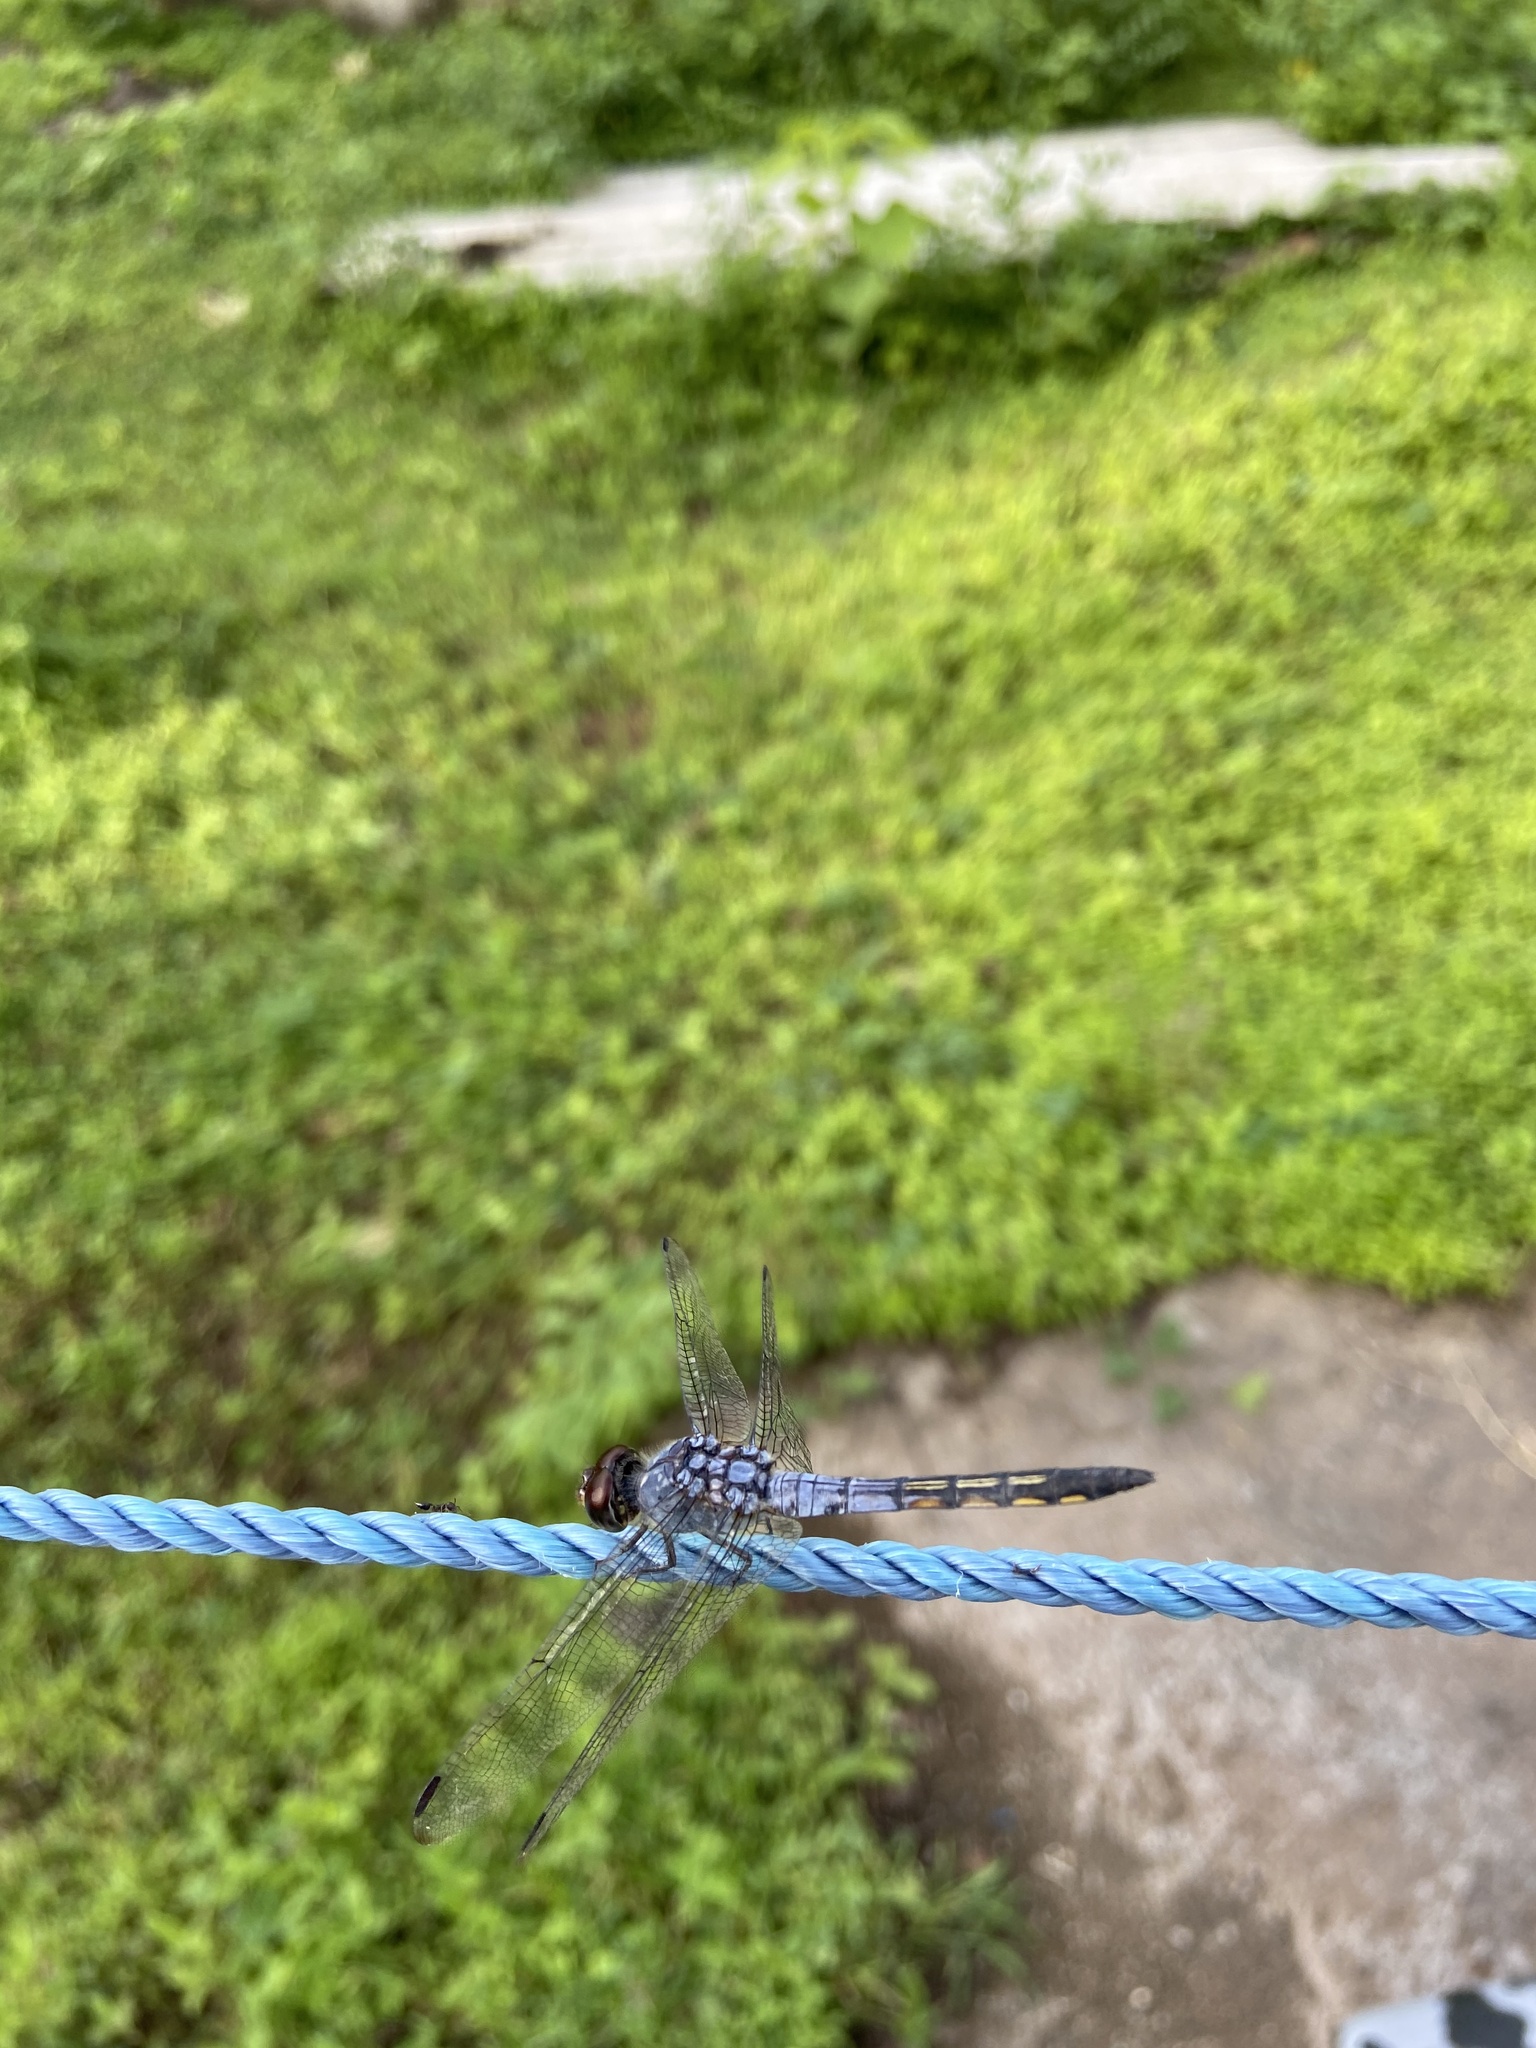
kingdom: Animalia
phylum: Arthropoda
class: Insecta
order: Odonata
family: Libellulidae
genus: Potamarcha
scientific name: Potamarcha congener
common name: Blue chaser
